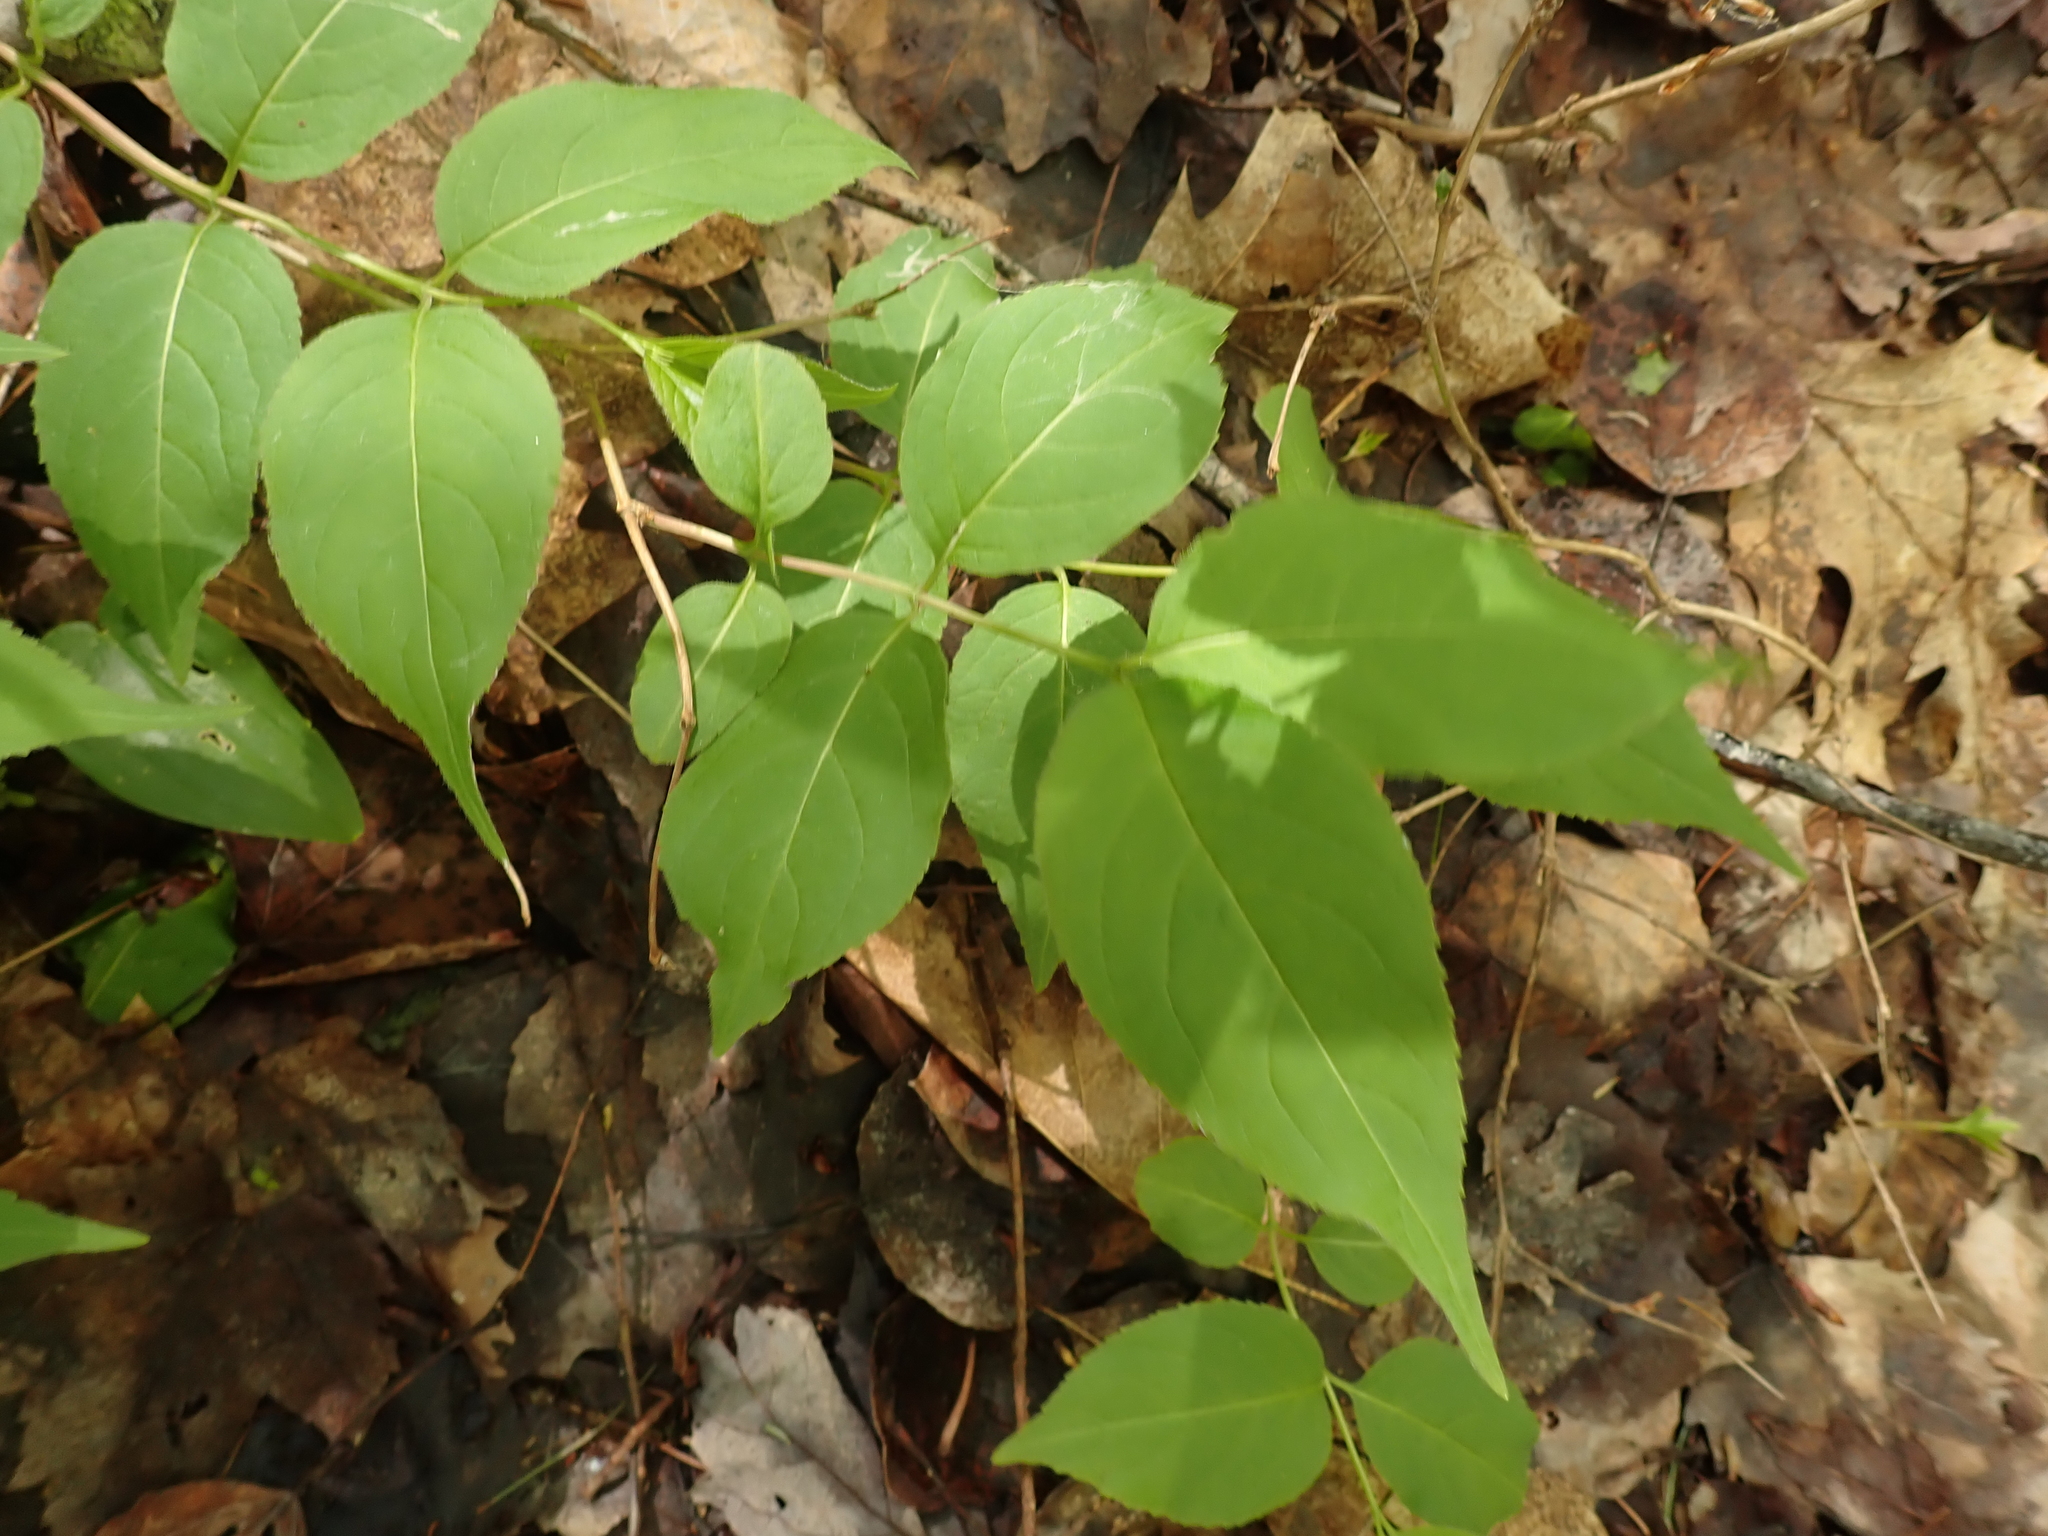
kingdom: Plantae
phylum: Tracheophyta
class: Magnoliopsida
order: Dipsacales
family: Caprifoliaceae
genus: Diervilla
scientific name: Diervilla lonicera
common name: Bush-honeysuckle
